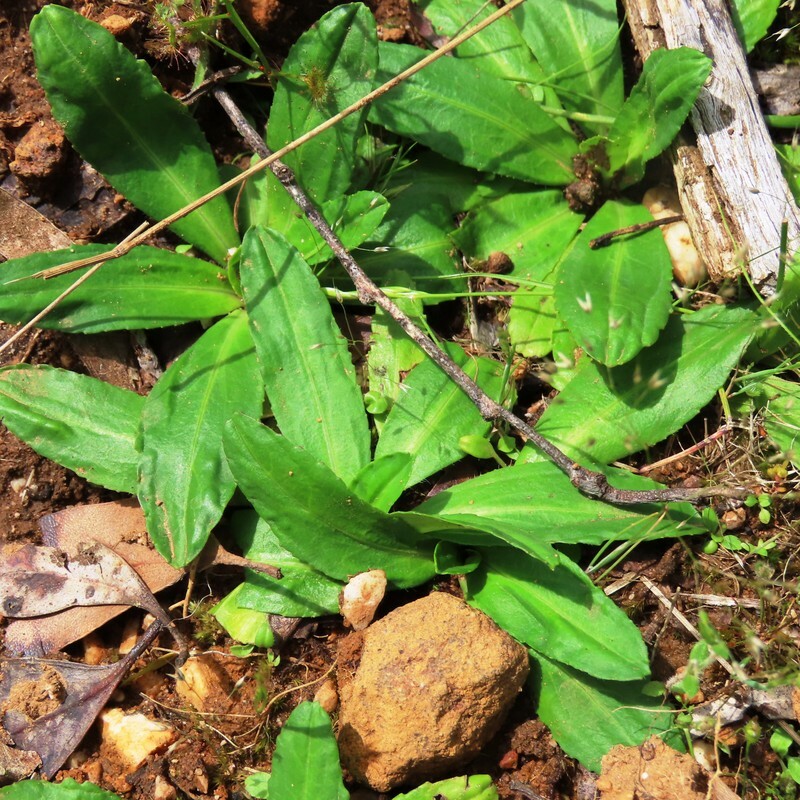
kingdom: Plantae
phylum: Tracheophyta
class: Magnoliopsida
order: Asterales
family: Asteraceae
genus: Solenogyne
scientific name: Solenogyne dominii
